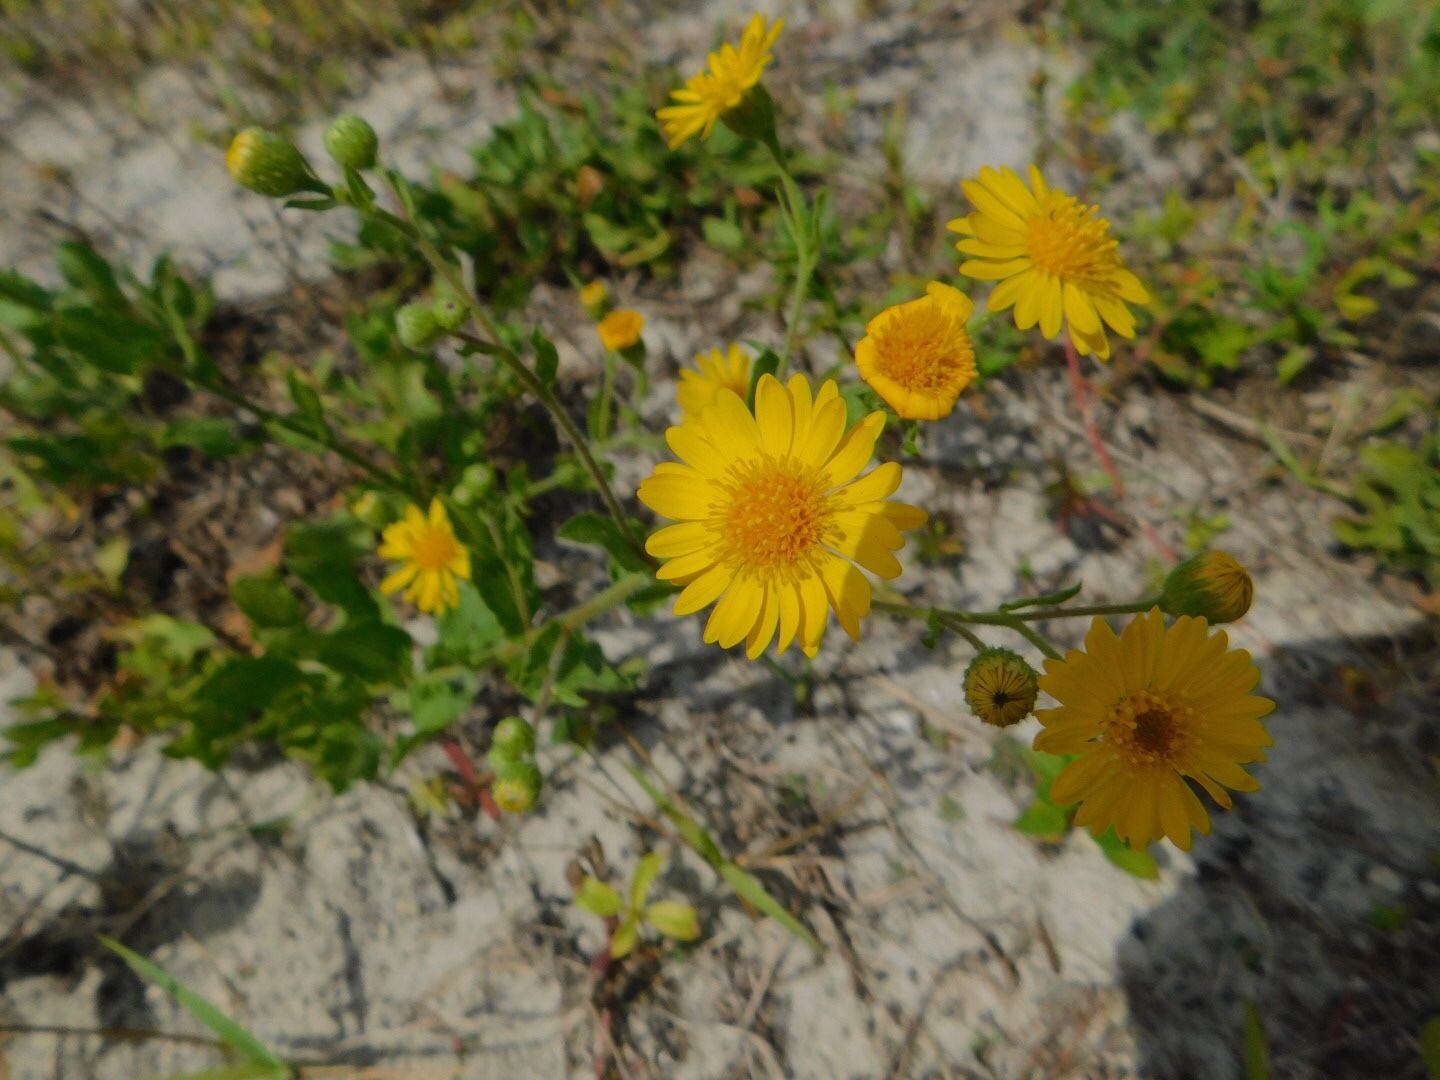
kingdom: Plantae
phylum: Tracheophyta
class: Magnoliopsida
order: Asterales
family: Asteraceae
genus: Heterotheca
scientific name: Heterotheca subaxillaris
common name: Camphorweed
